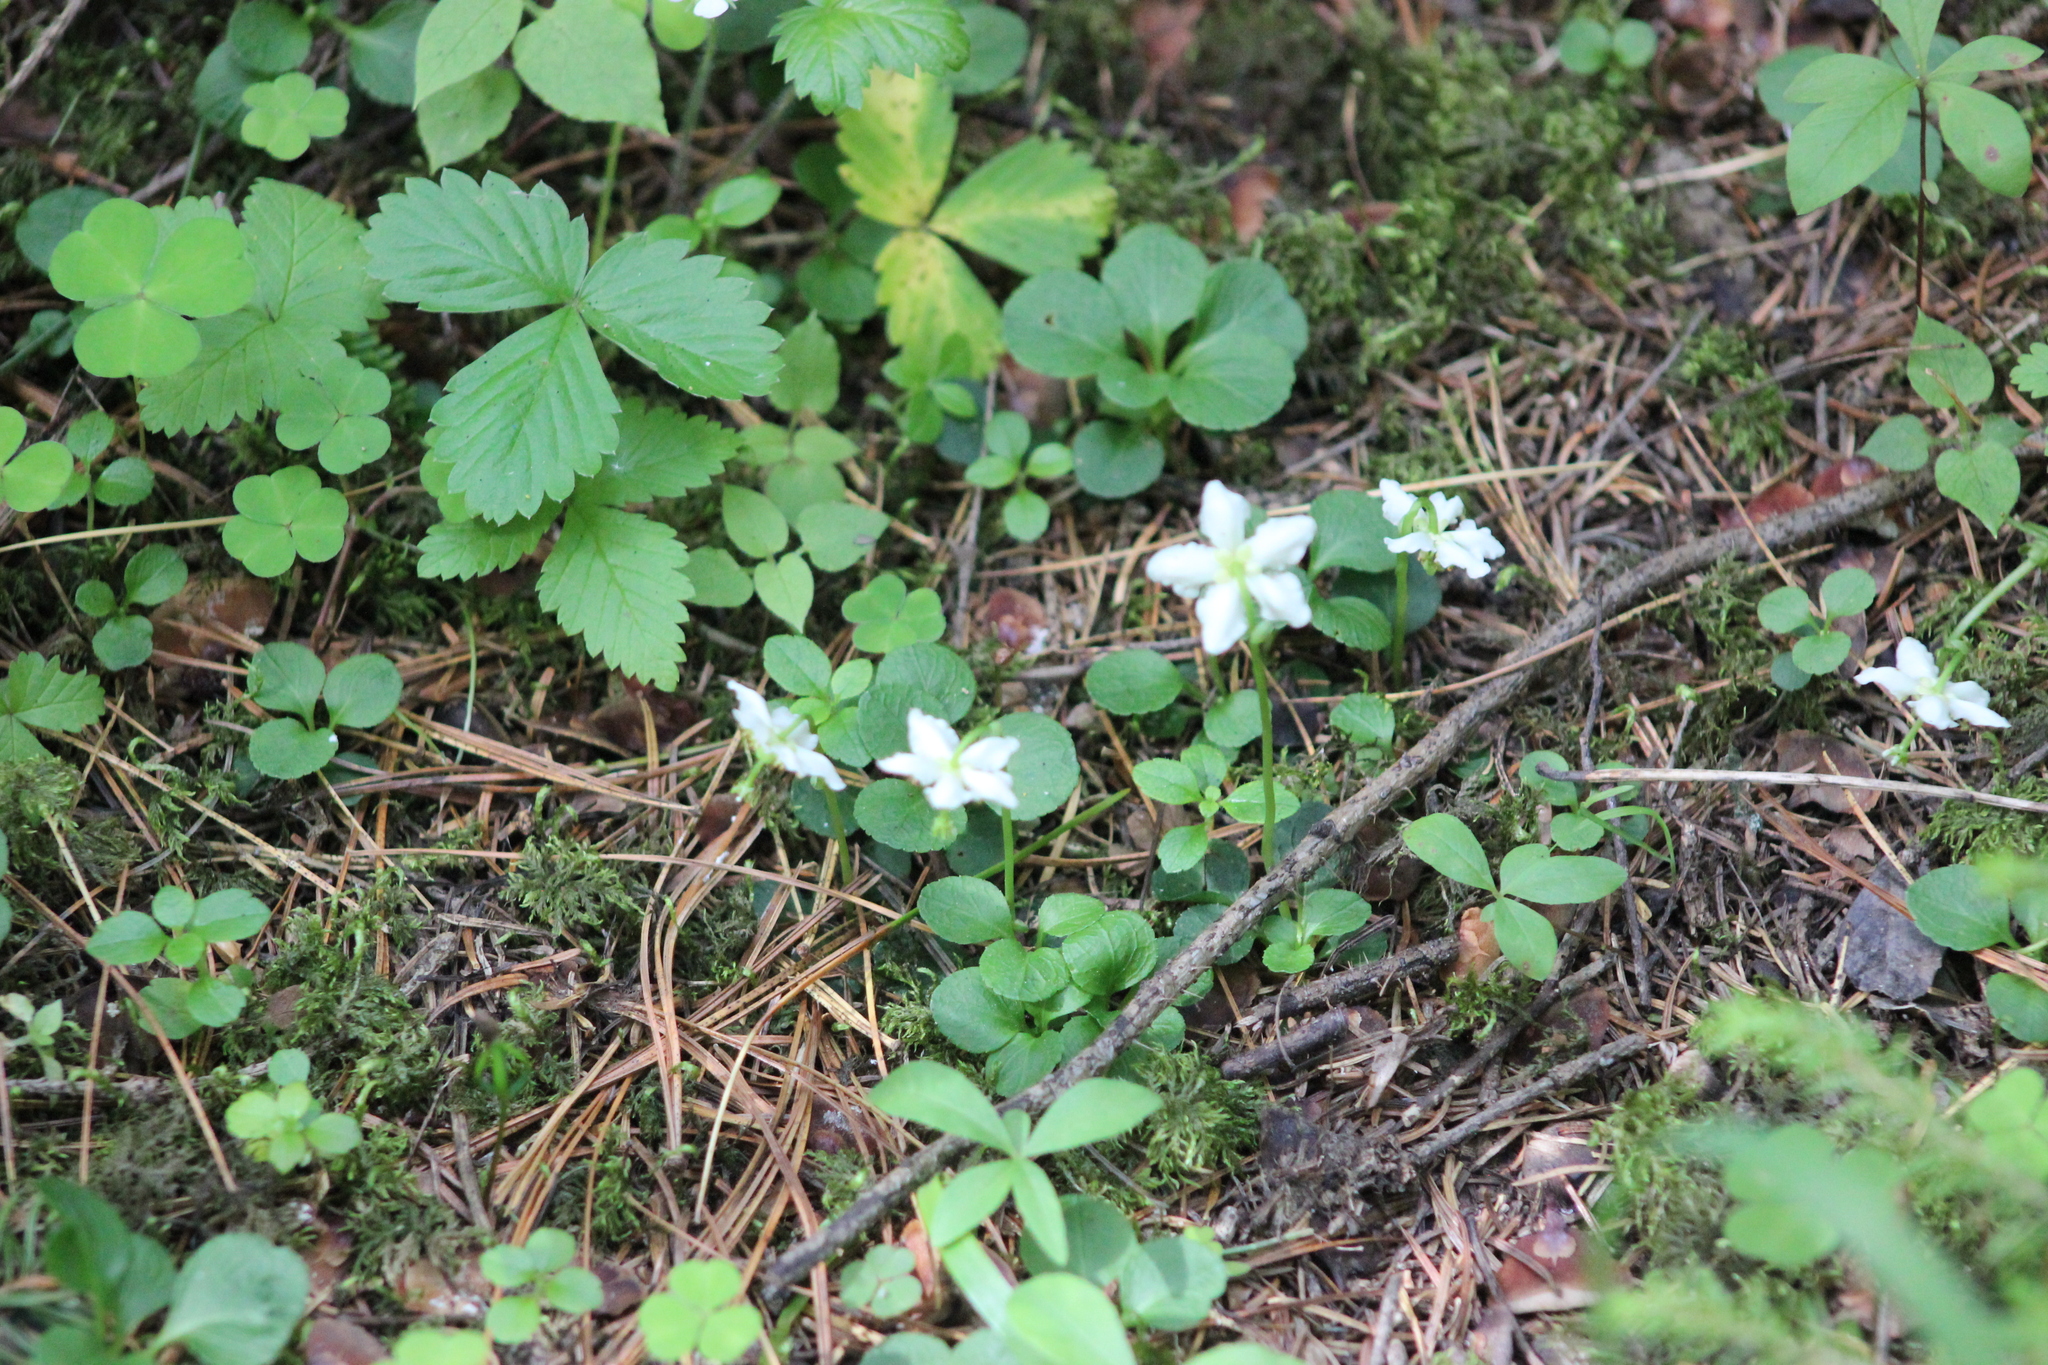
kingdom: Plantae
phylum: Tracheophyta
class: Magnoliopsida
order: Ericales
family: Ericaceae
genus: Moneses
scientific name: Moneses uniflora
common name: One-flowered wintergreen
